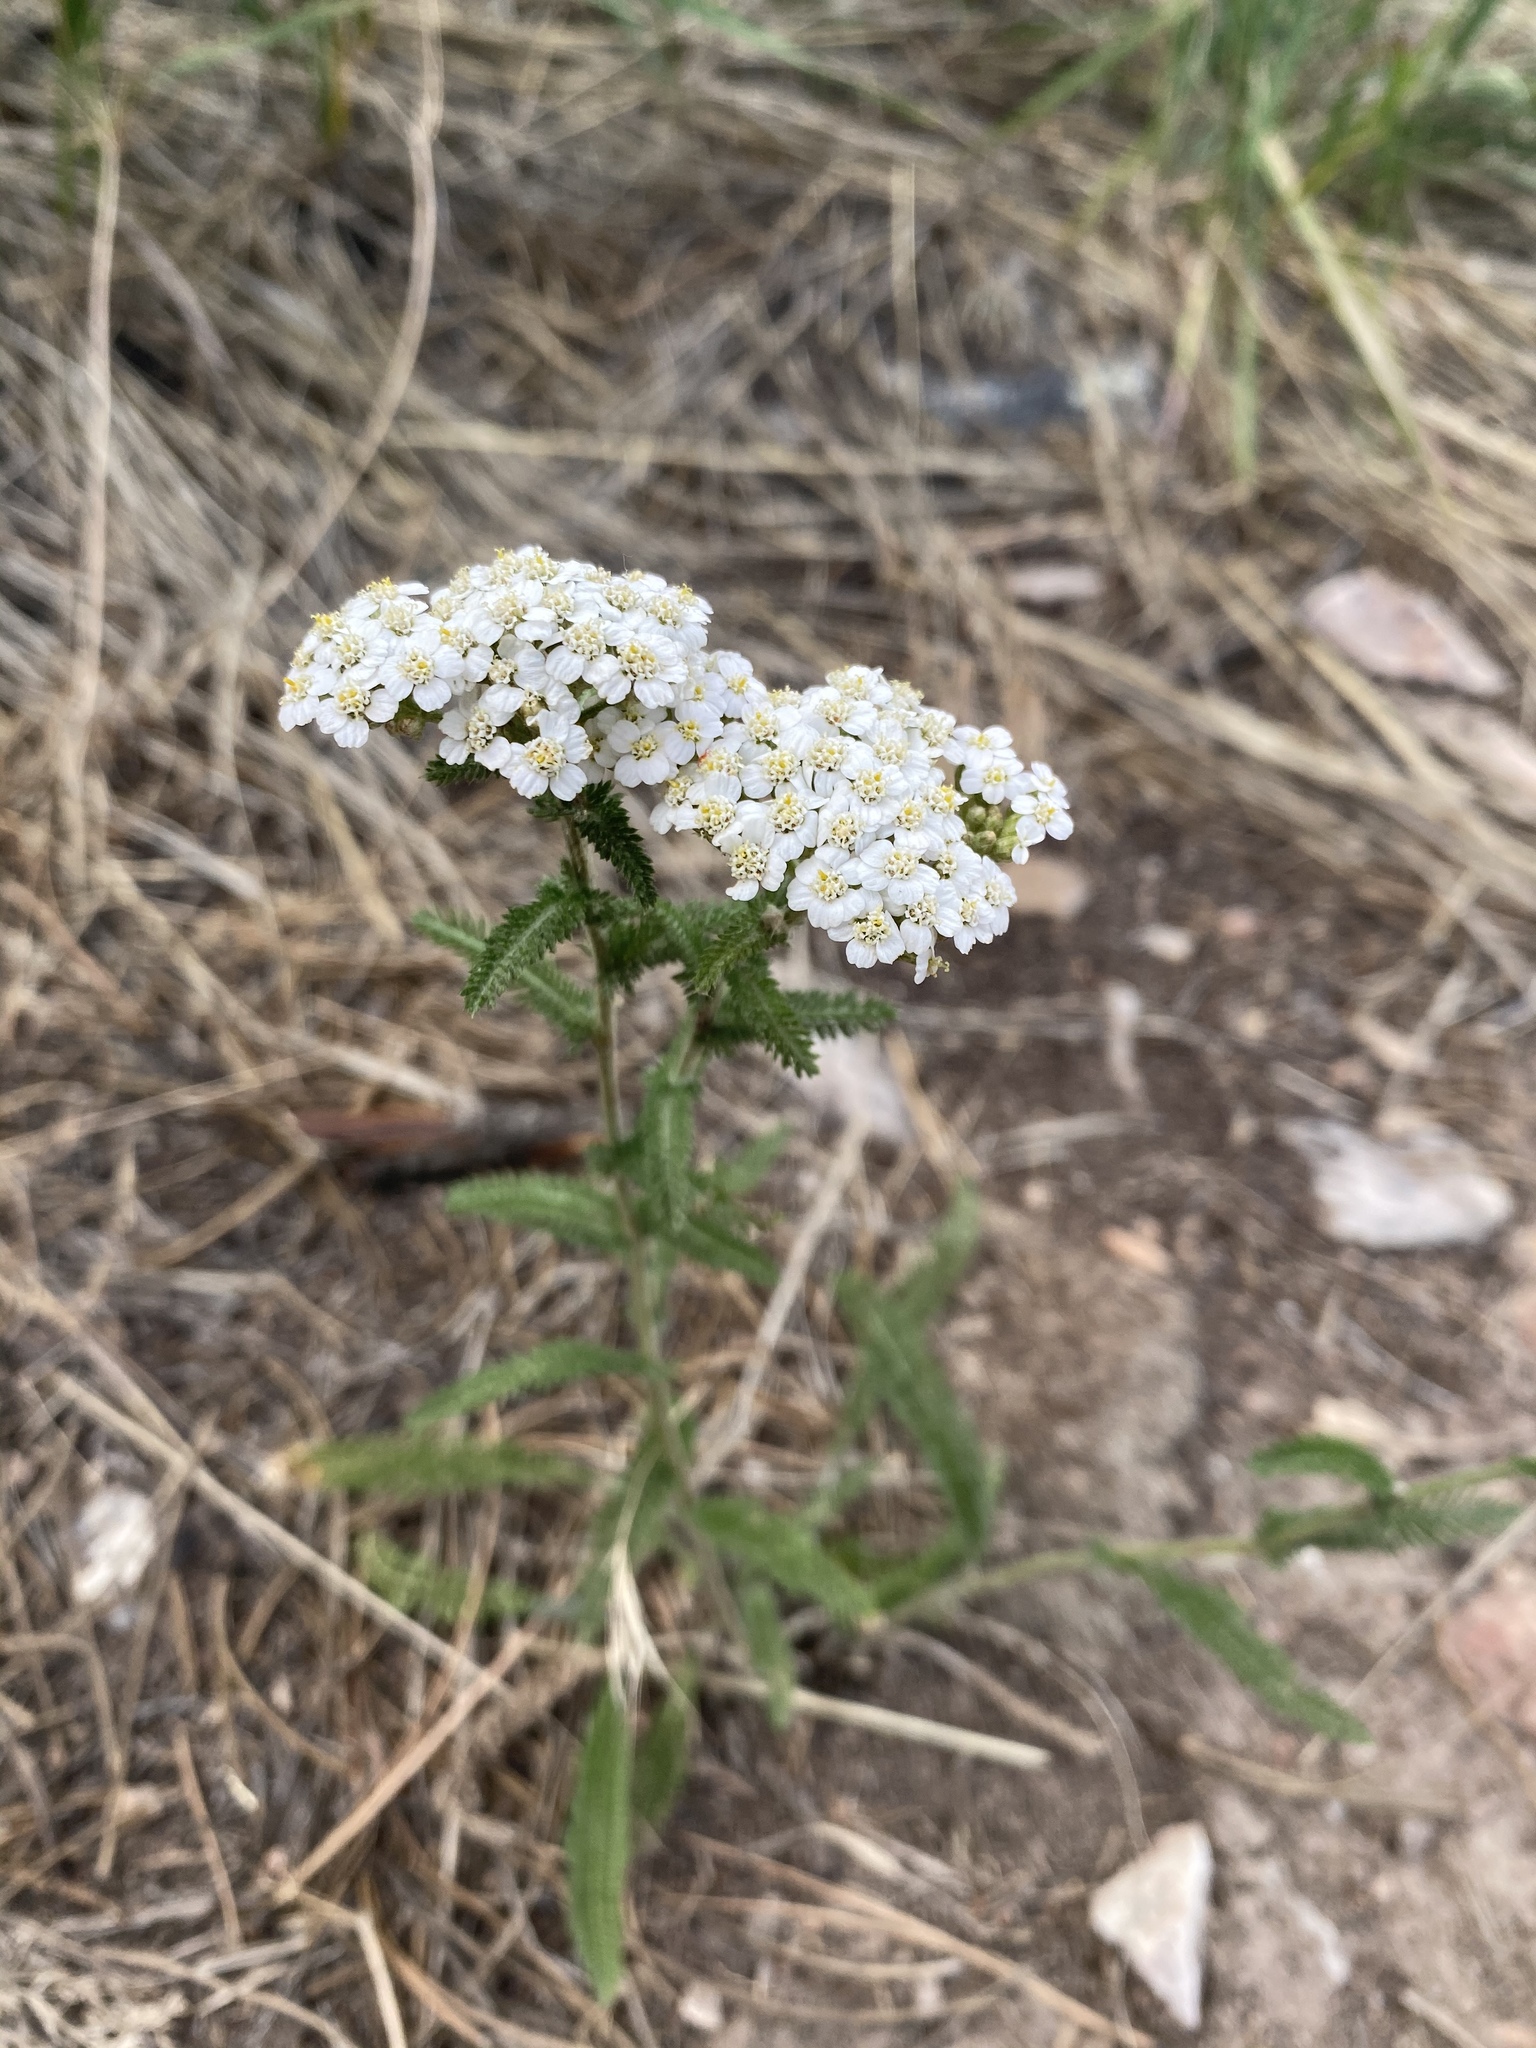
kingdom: Plantae
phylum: Tracheophyta
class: Magnoliopsida
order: Asterales
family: Asteraceae
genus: Achillea
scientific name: Achillea millefolium
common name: Yarrow
